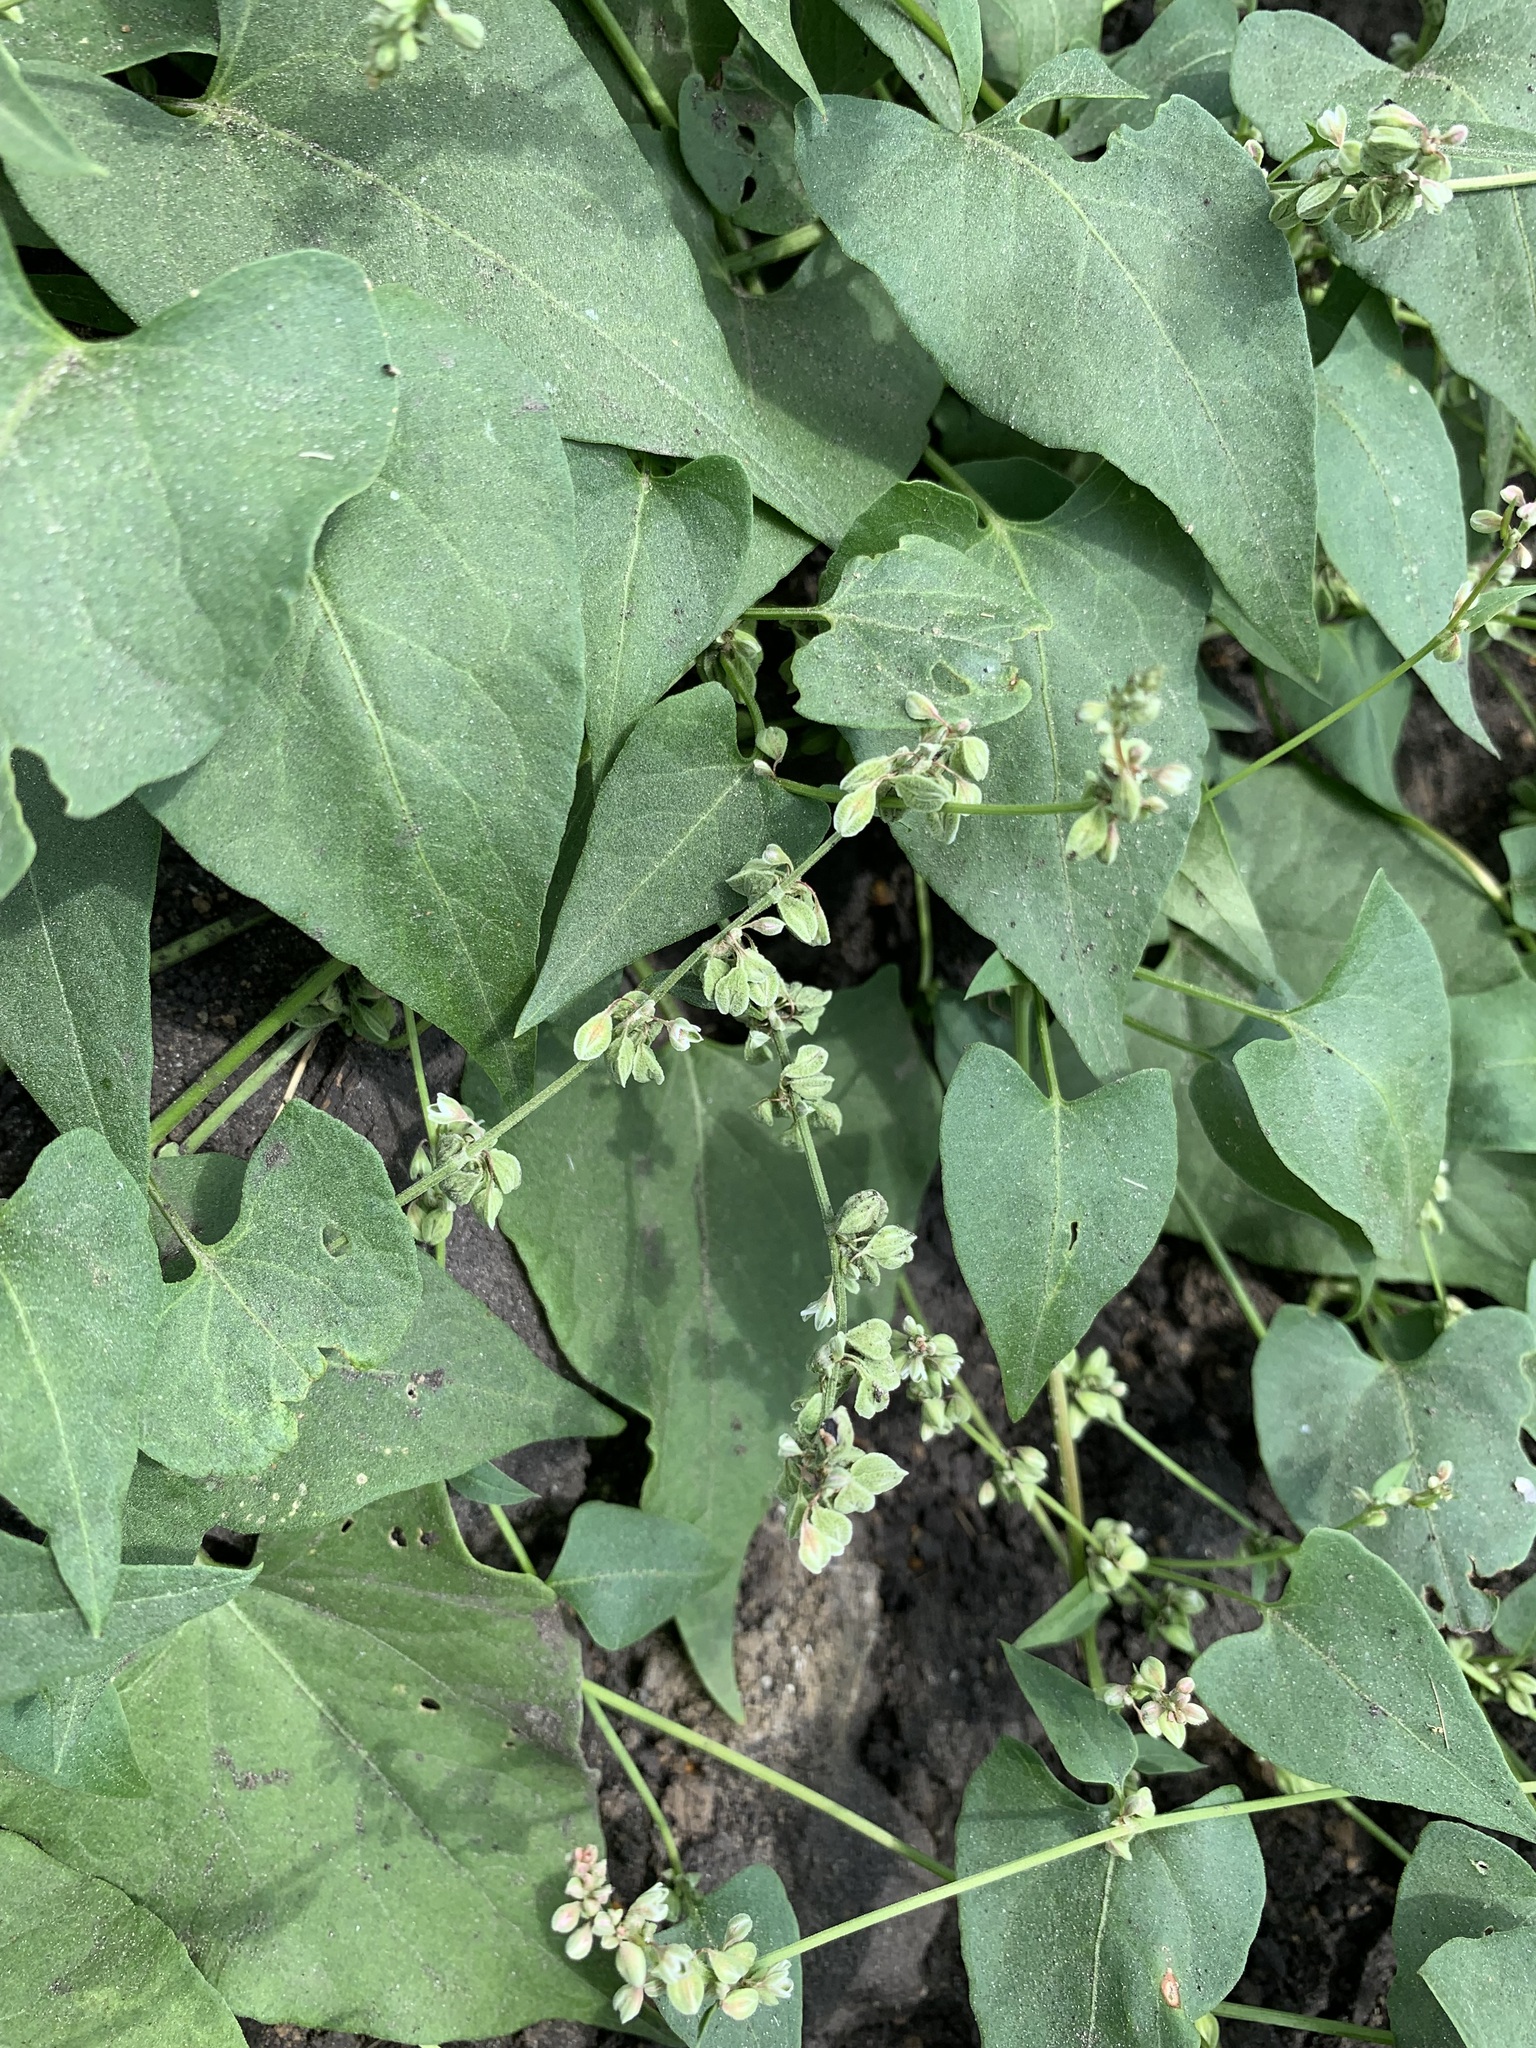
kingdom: Plantae
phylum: Tracheophyta
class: Magnoliopsida
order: Caryophyllales
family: Polygonaceae
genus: Fallopia
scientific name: Fallopia convolvulus
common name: Black bindweed
